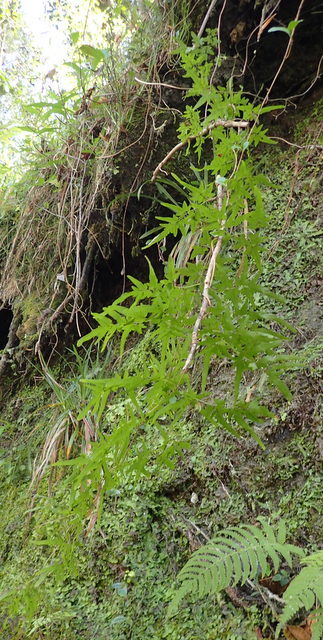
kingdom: Plantae
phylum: Tracheophyta
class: Polypodiopsida
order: Schizaeales
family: Lygodiaceae
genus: Lygodium
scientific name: Lygodium japonicum
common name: Japanese climbing fern
